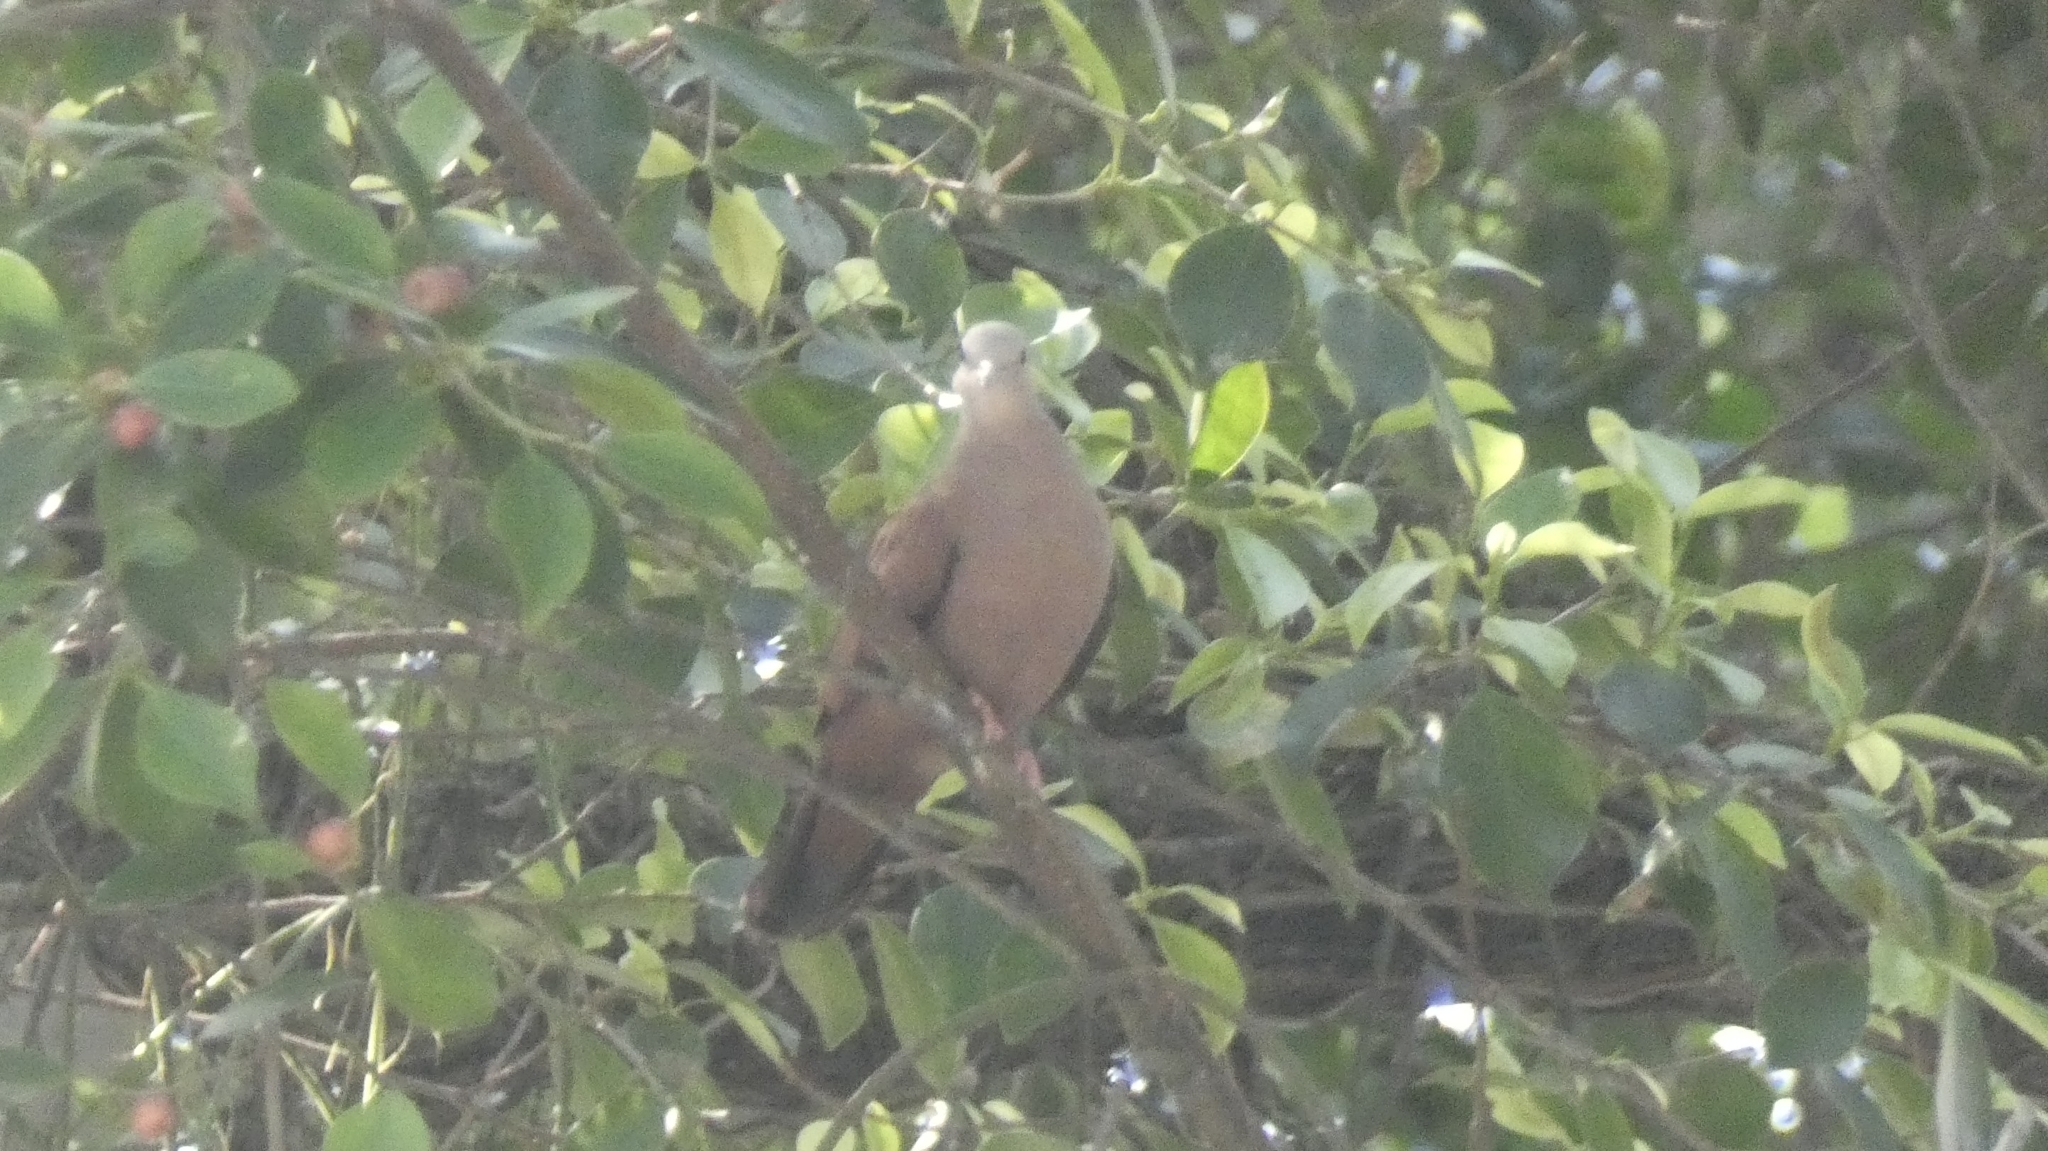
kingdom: Animalia
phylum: Chordata
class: Aves
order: Columbiformes
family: Columbidae
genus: Columbina
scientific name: Columbina talpacoti
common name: Ruddy ground dove
